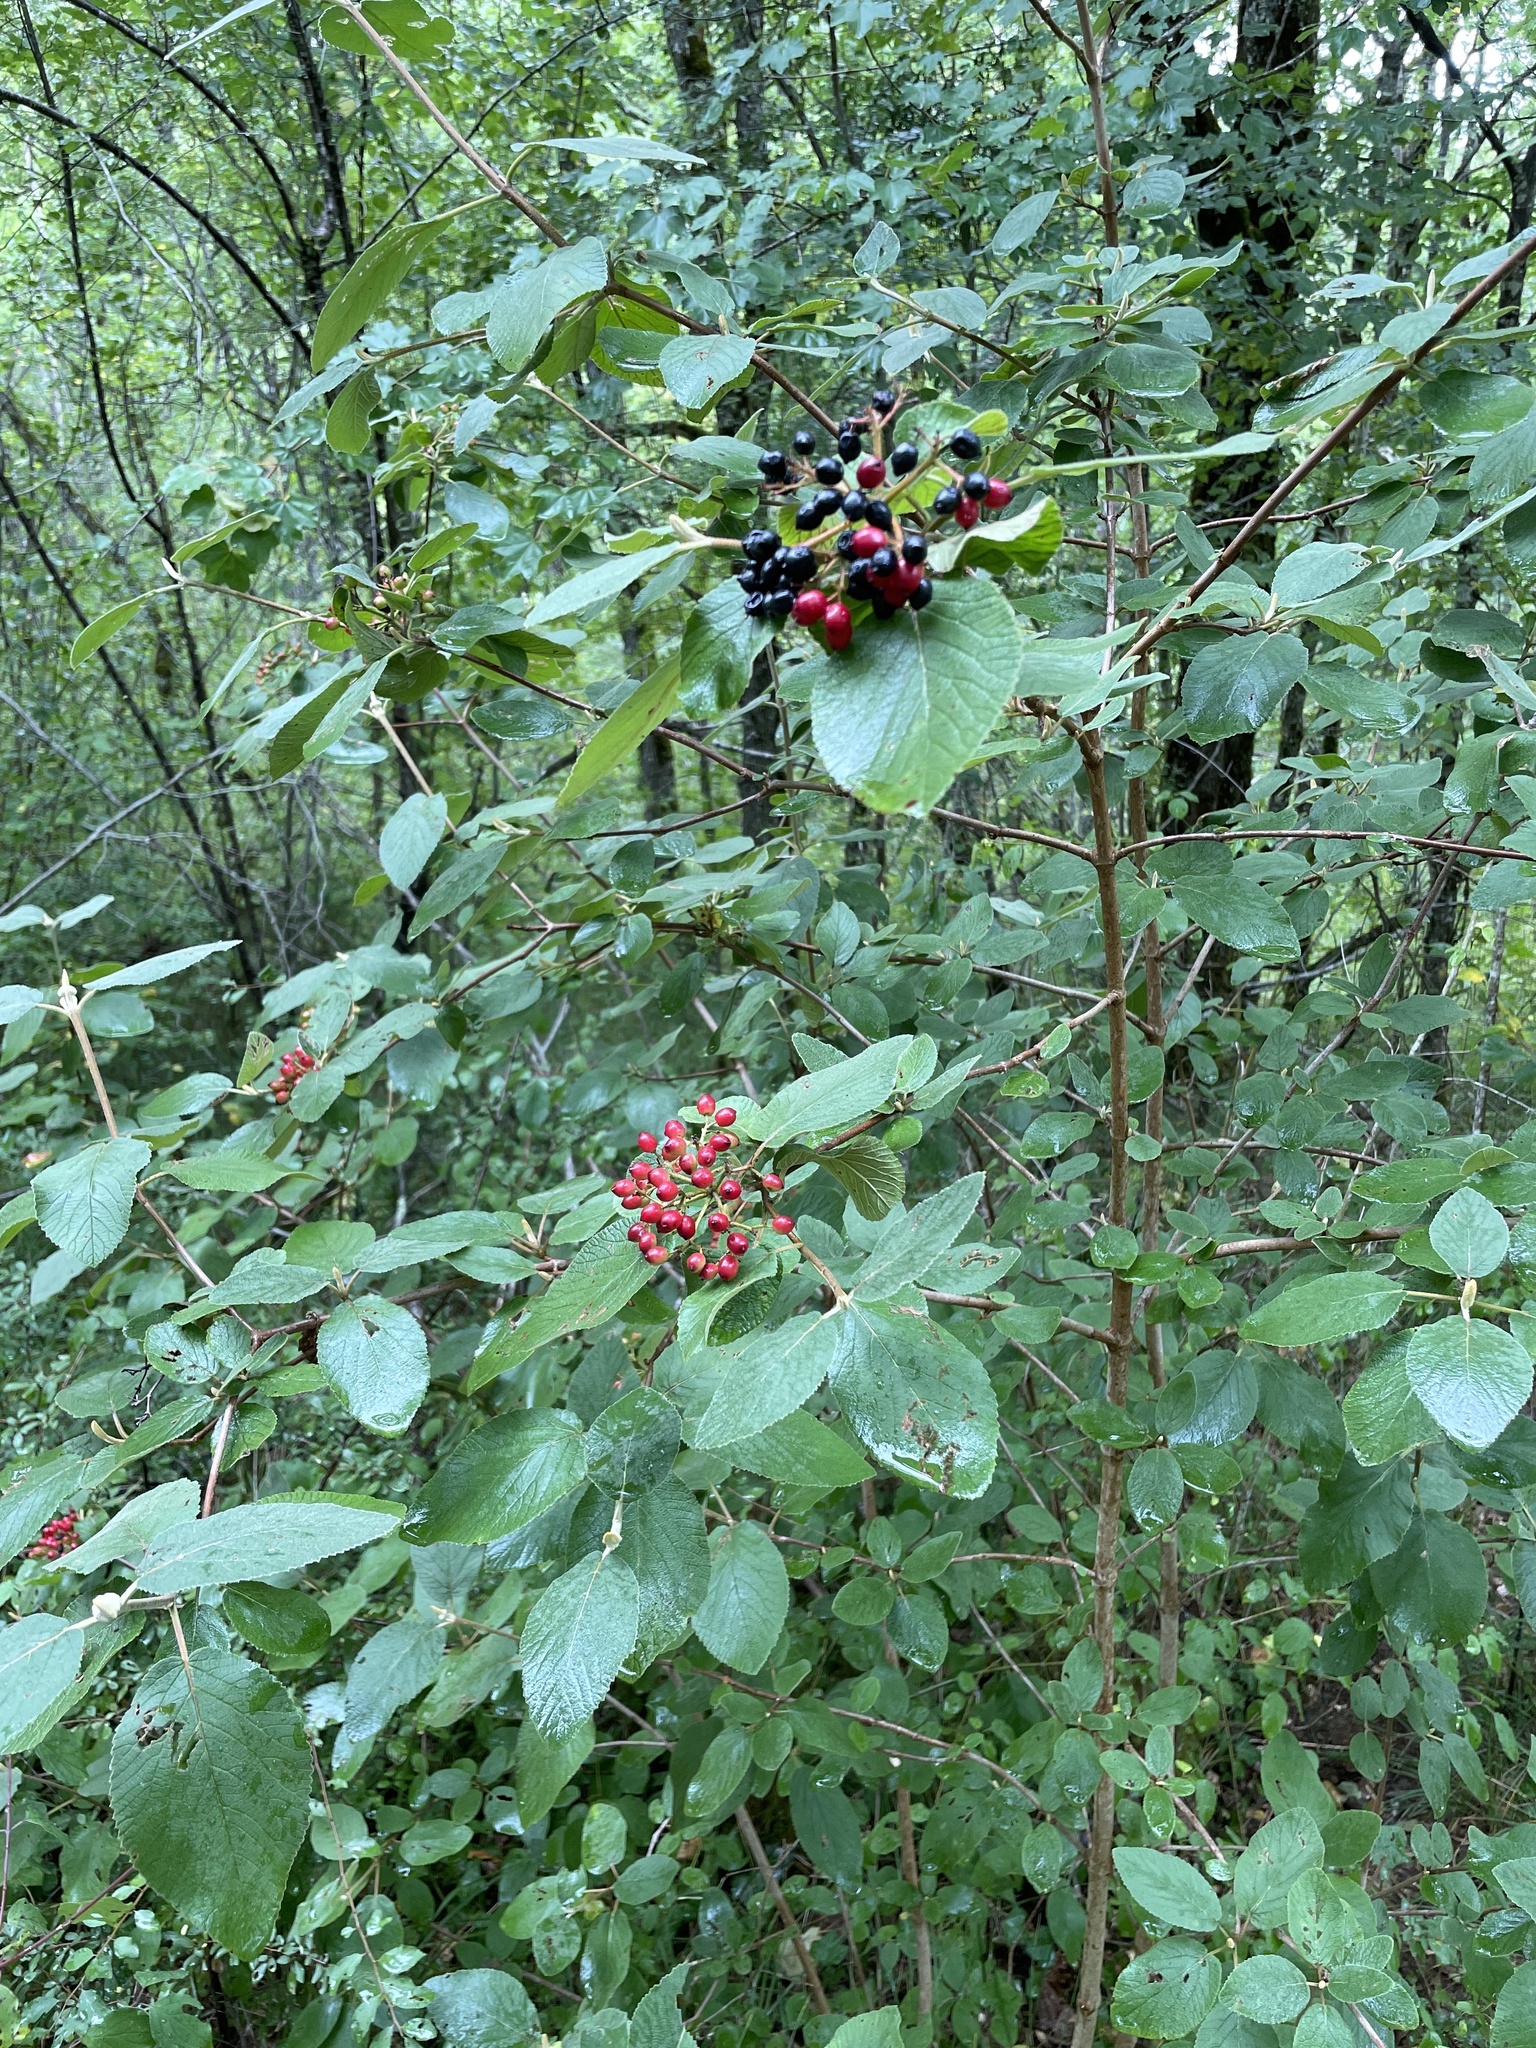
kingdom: Plantae
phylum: Tracheophyta
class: Magnoliopsida
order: Dipsacales
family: Viburnaceae
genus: Viburnum
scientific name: Viburnum lantana
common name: Wayfaring tree
